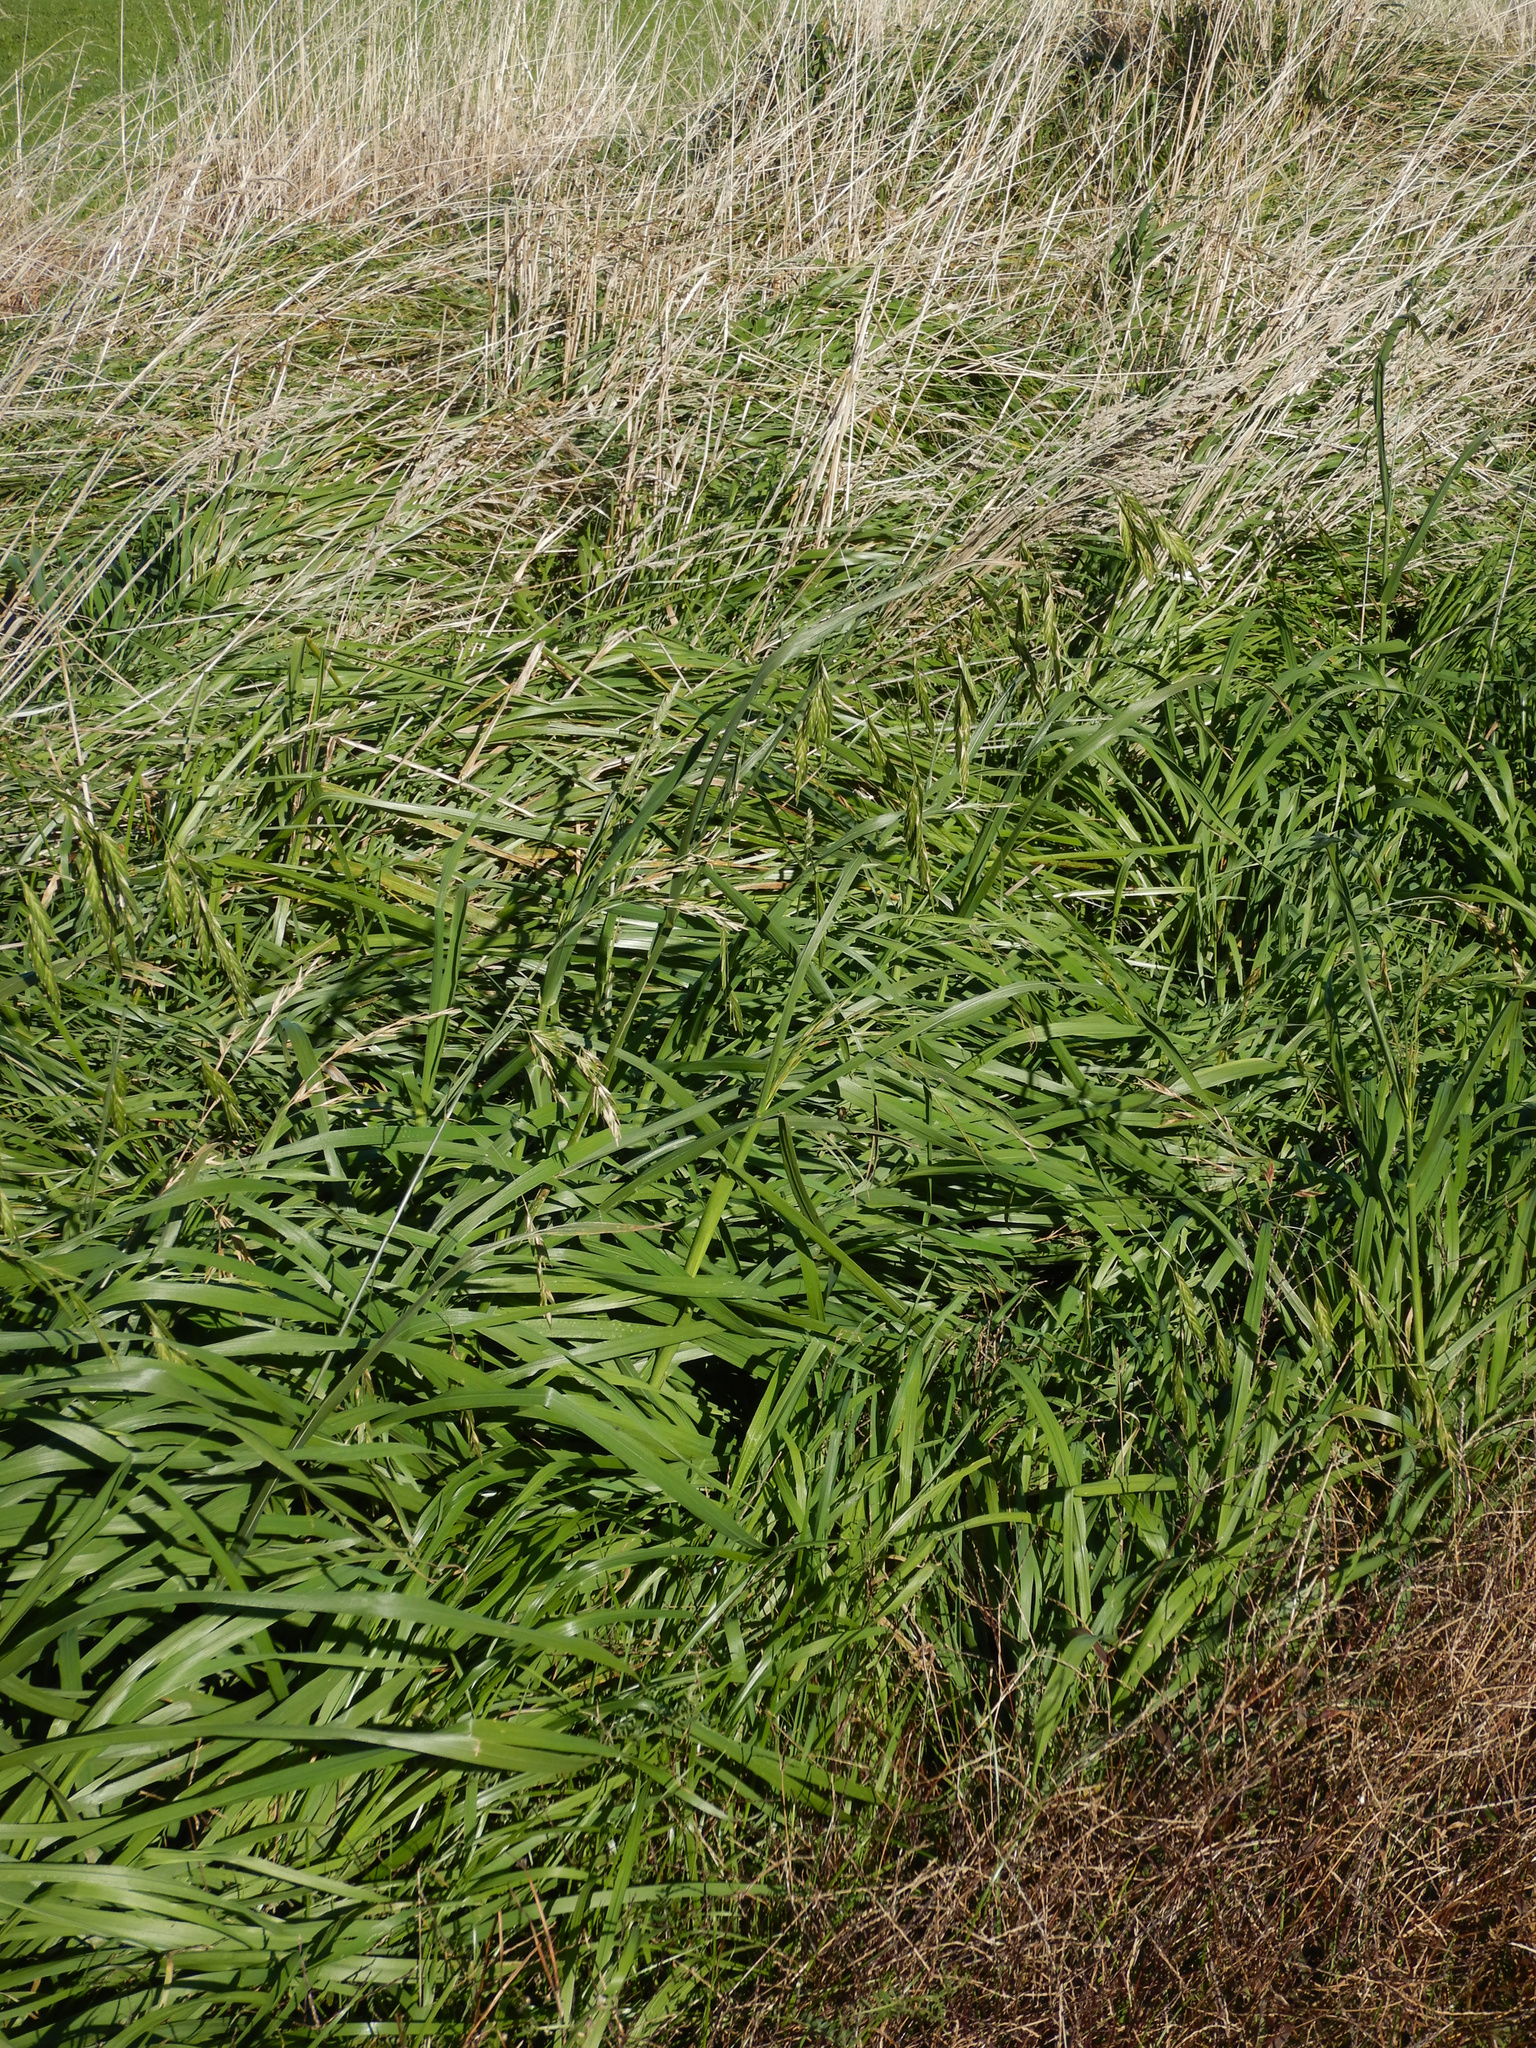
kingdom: Plantae
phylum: Tracheophyta
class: Liliopsida
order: Poales
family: Poaceae
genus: Lolium
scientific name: Lolium arundinaceum
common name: Reed fescue
